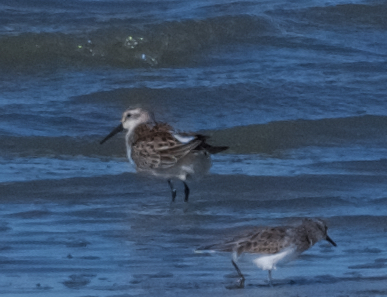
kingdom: Animalia
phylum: Chordata
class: Aves
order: Charadriiformes
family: Scolopacidae
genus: Calidris
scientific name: Calidris mauri
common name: Western sandpiper
